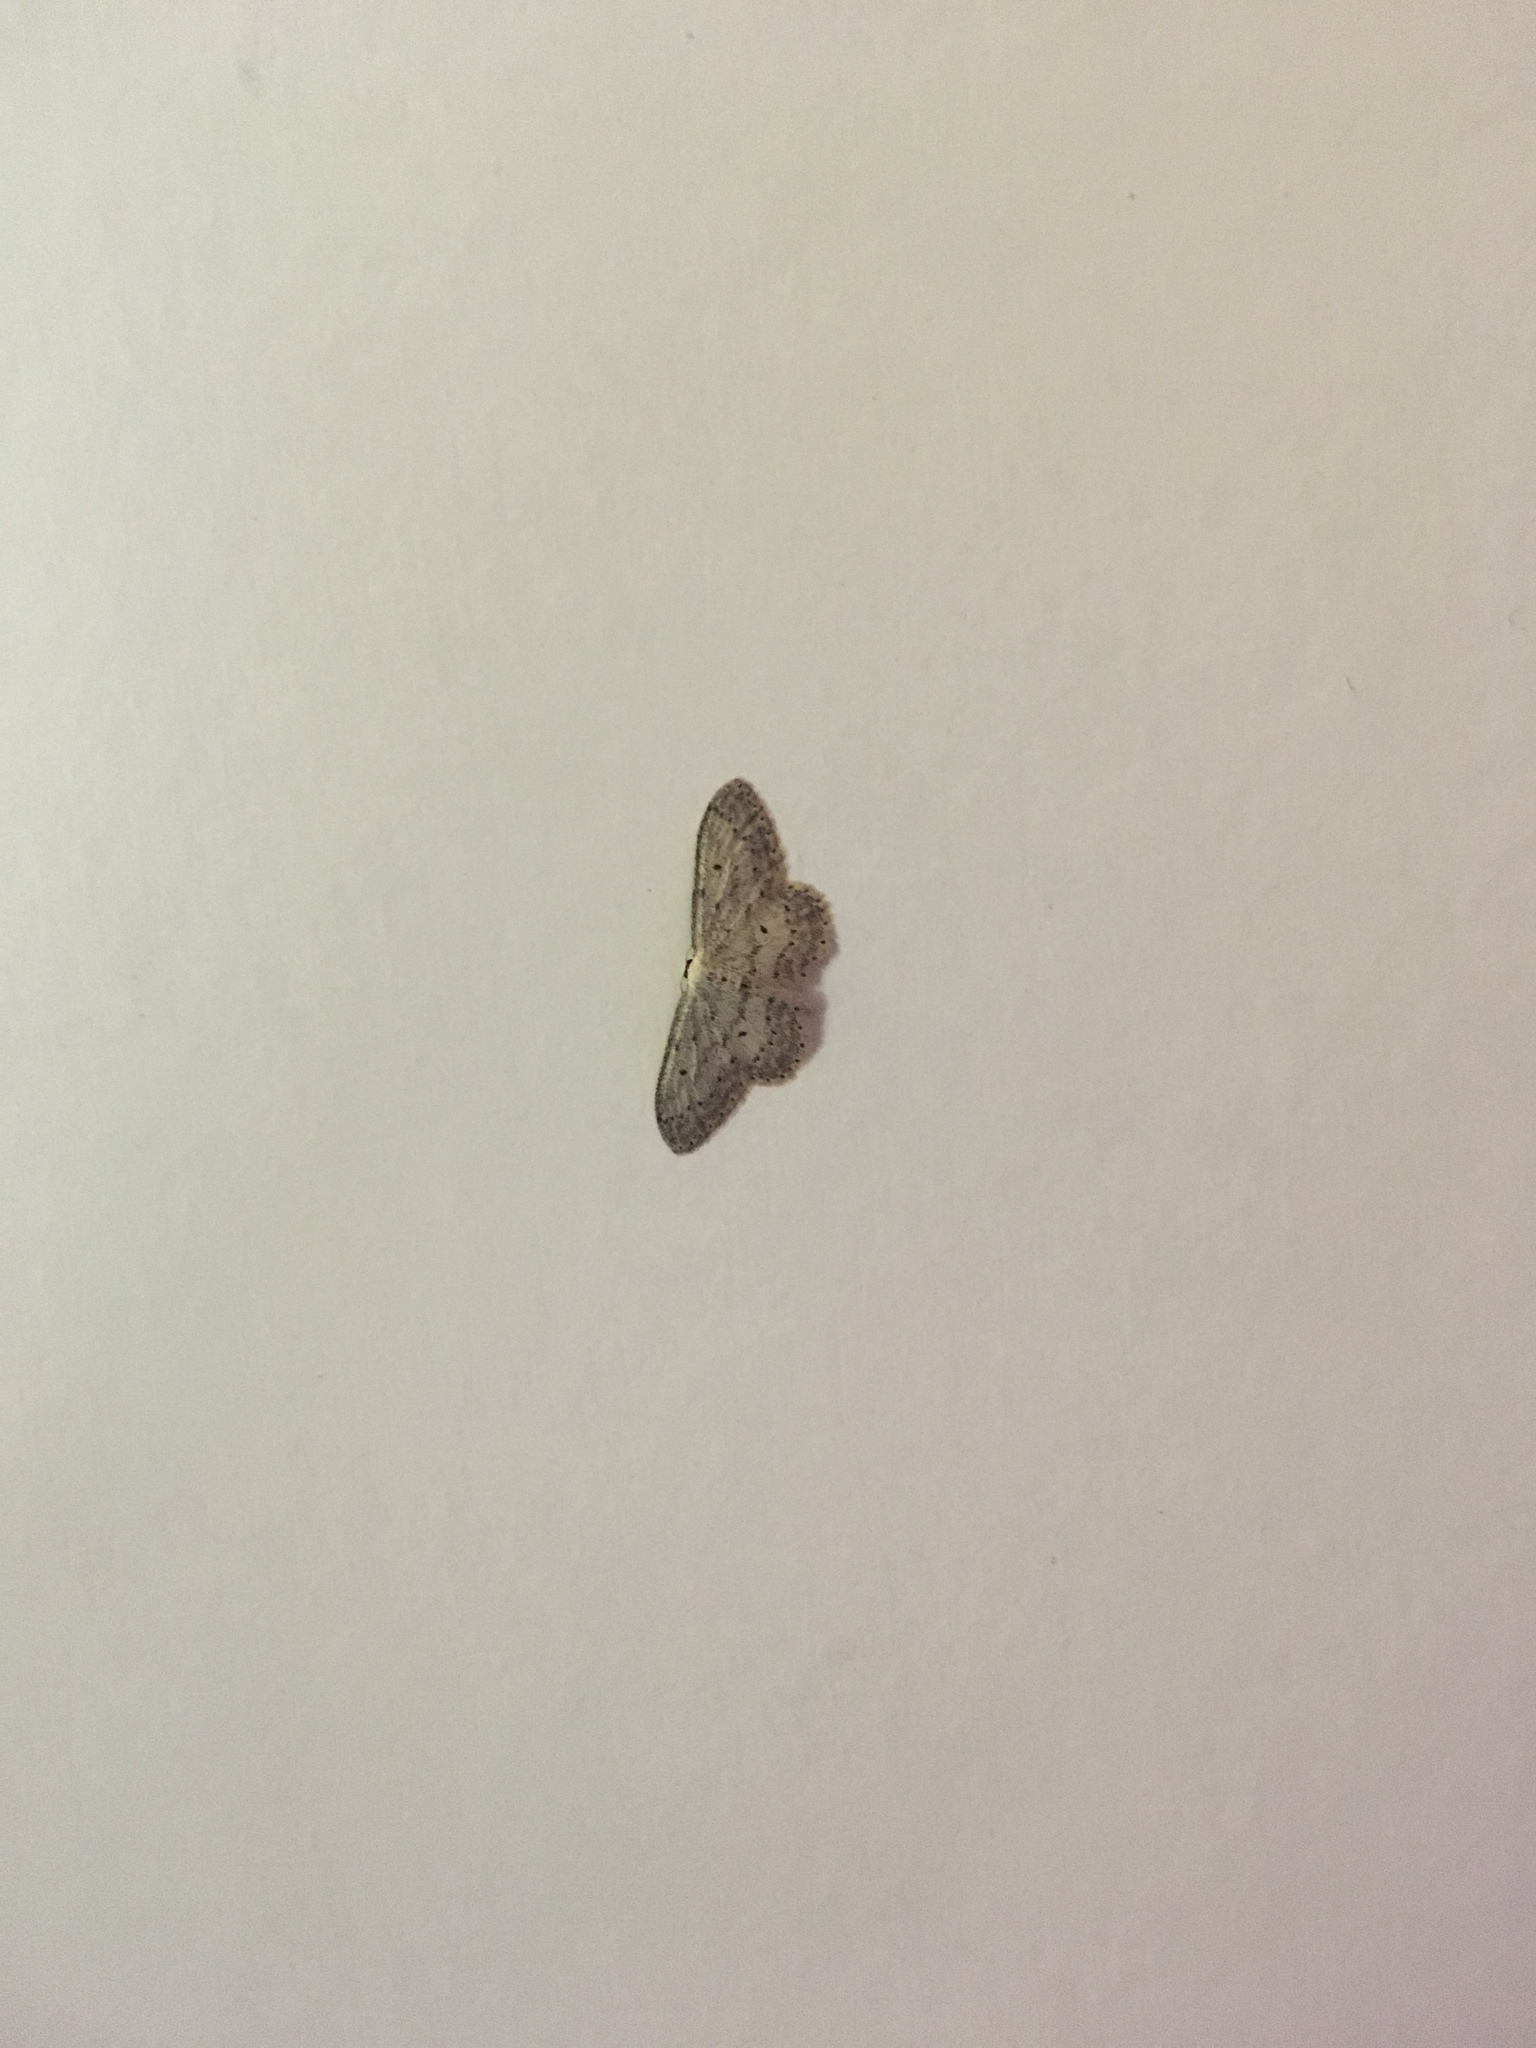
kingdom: Animalia
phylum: Arthropoda
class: Insecta
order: Lepidoptera
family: Geometridae
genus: Idaea
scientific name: Idaea seriata
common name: Small dusty wave
